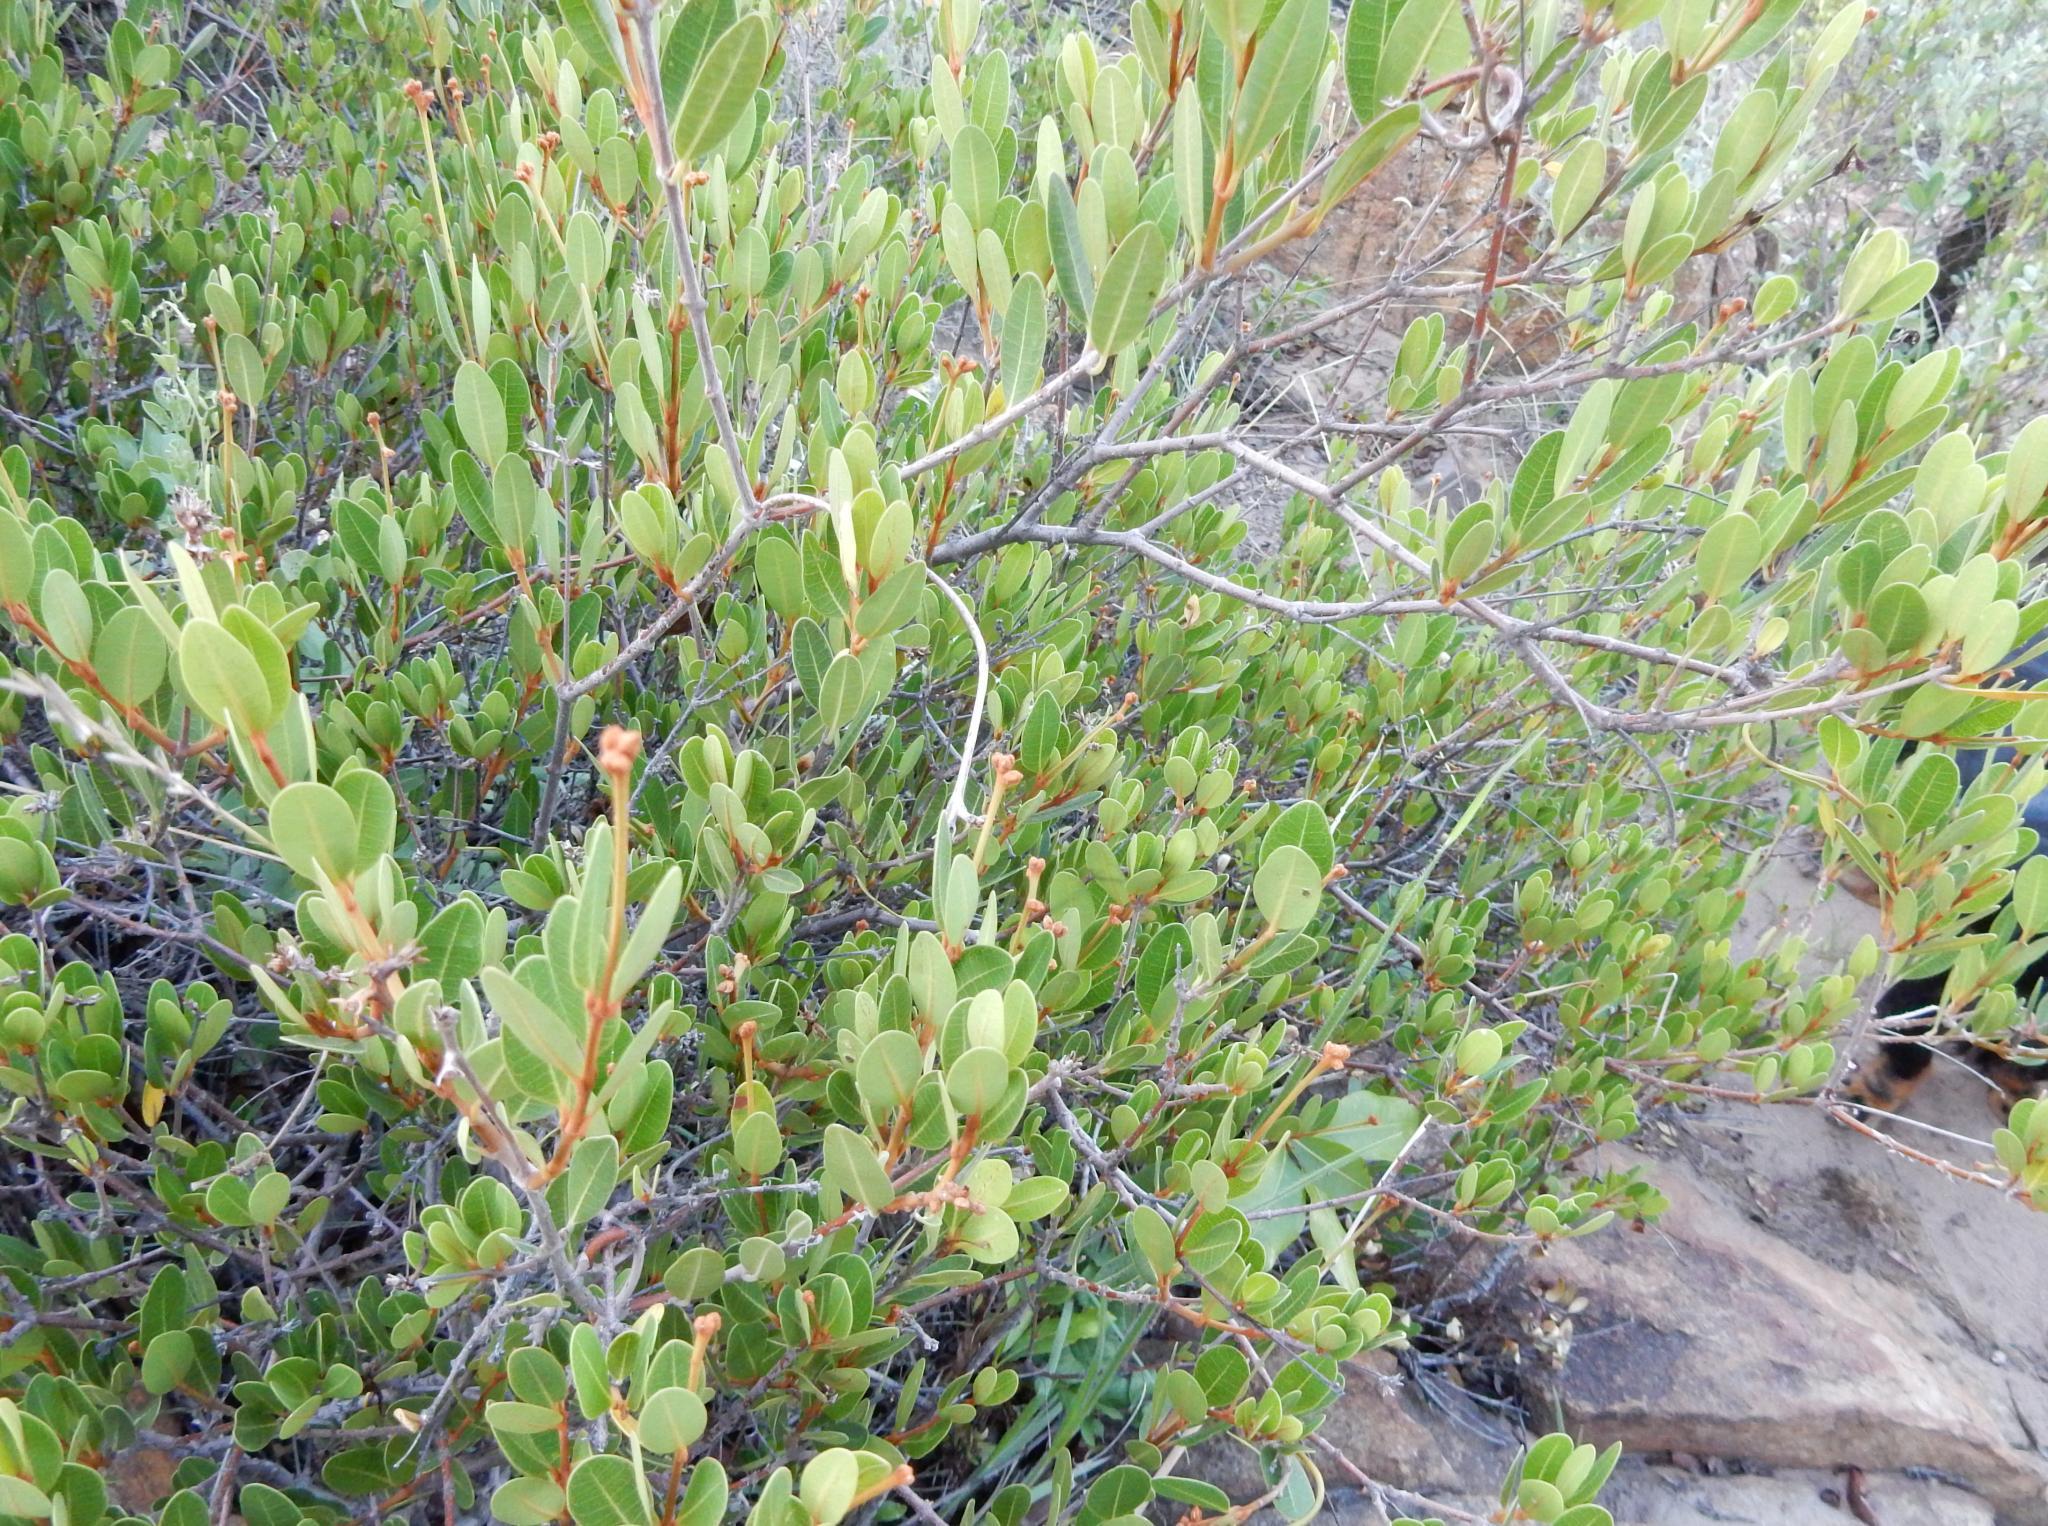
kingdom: Plantae
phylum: Tracheophyta
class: Magnoliopsida
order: Gentianales
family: Apocynaceae
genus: Ancylobothrys
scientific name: Ancylobothrys capensis
